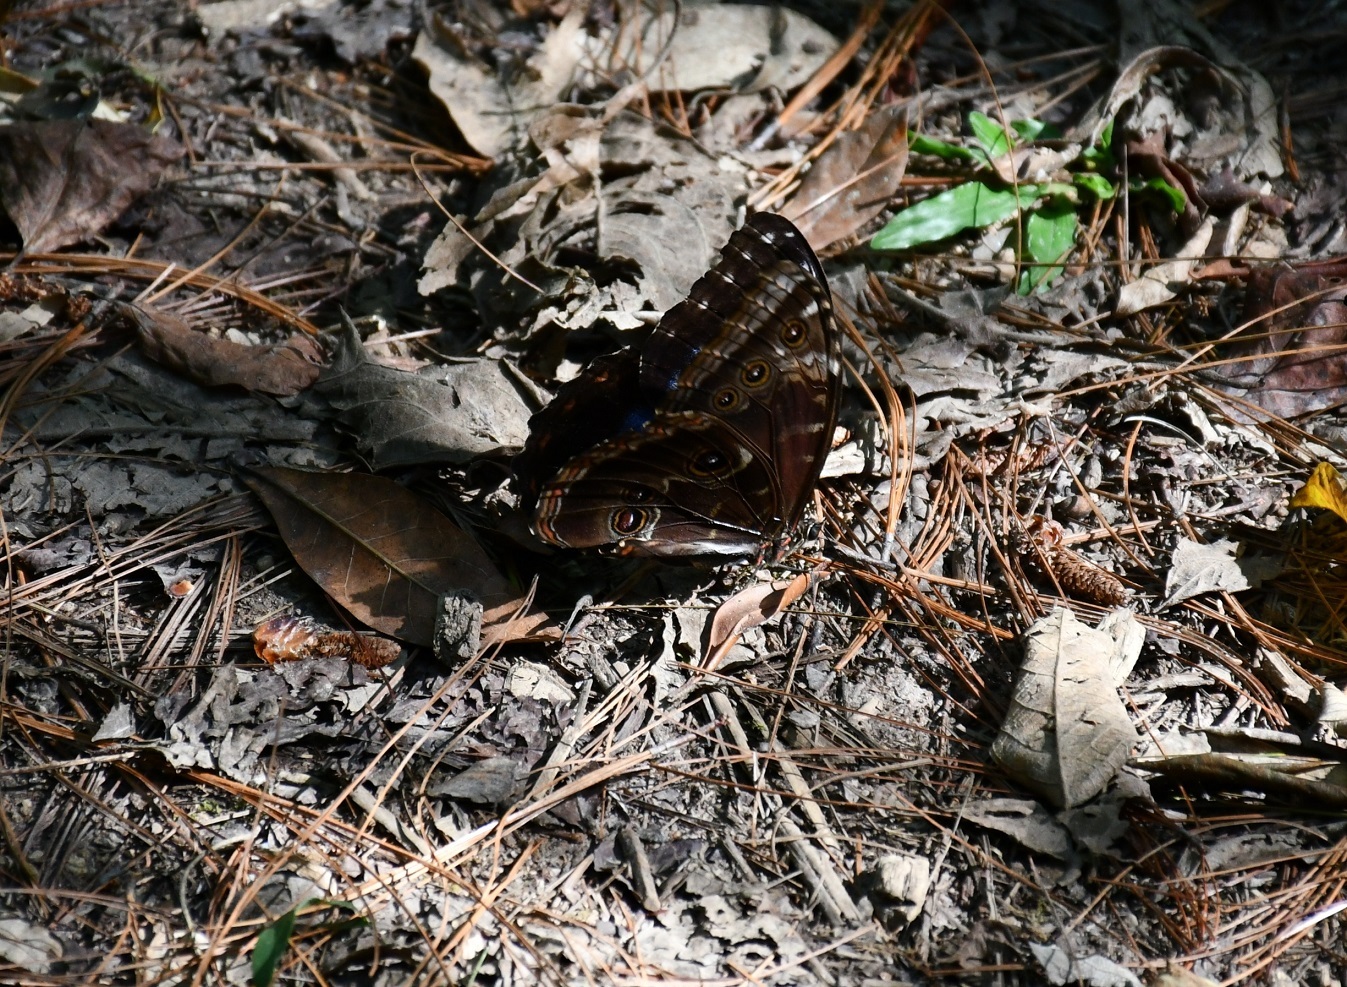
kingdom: Animalia
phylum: Arthropoda
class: Insecta
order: Lepidoptera
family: Nymphalidae
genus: Morpho
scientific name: Morpho helenor
